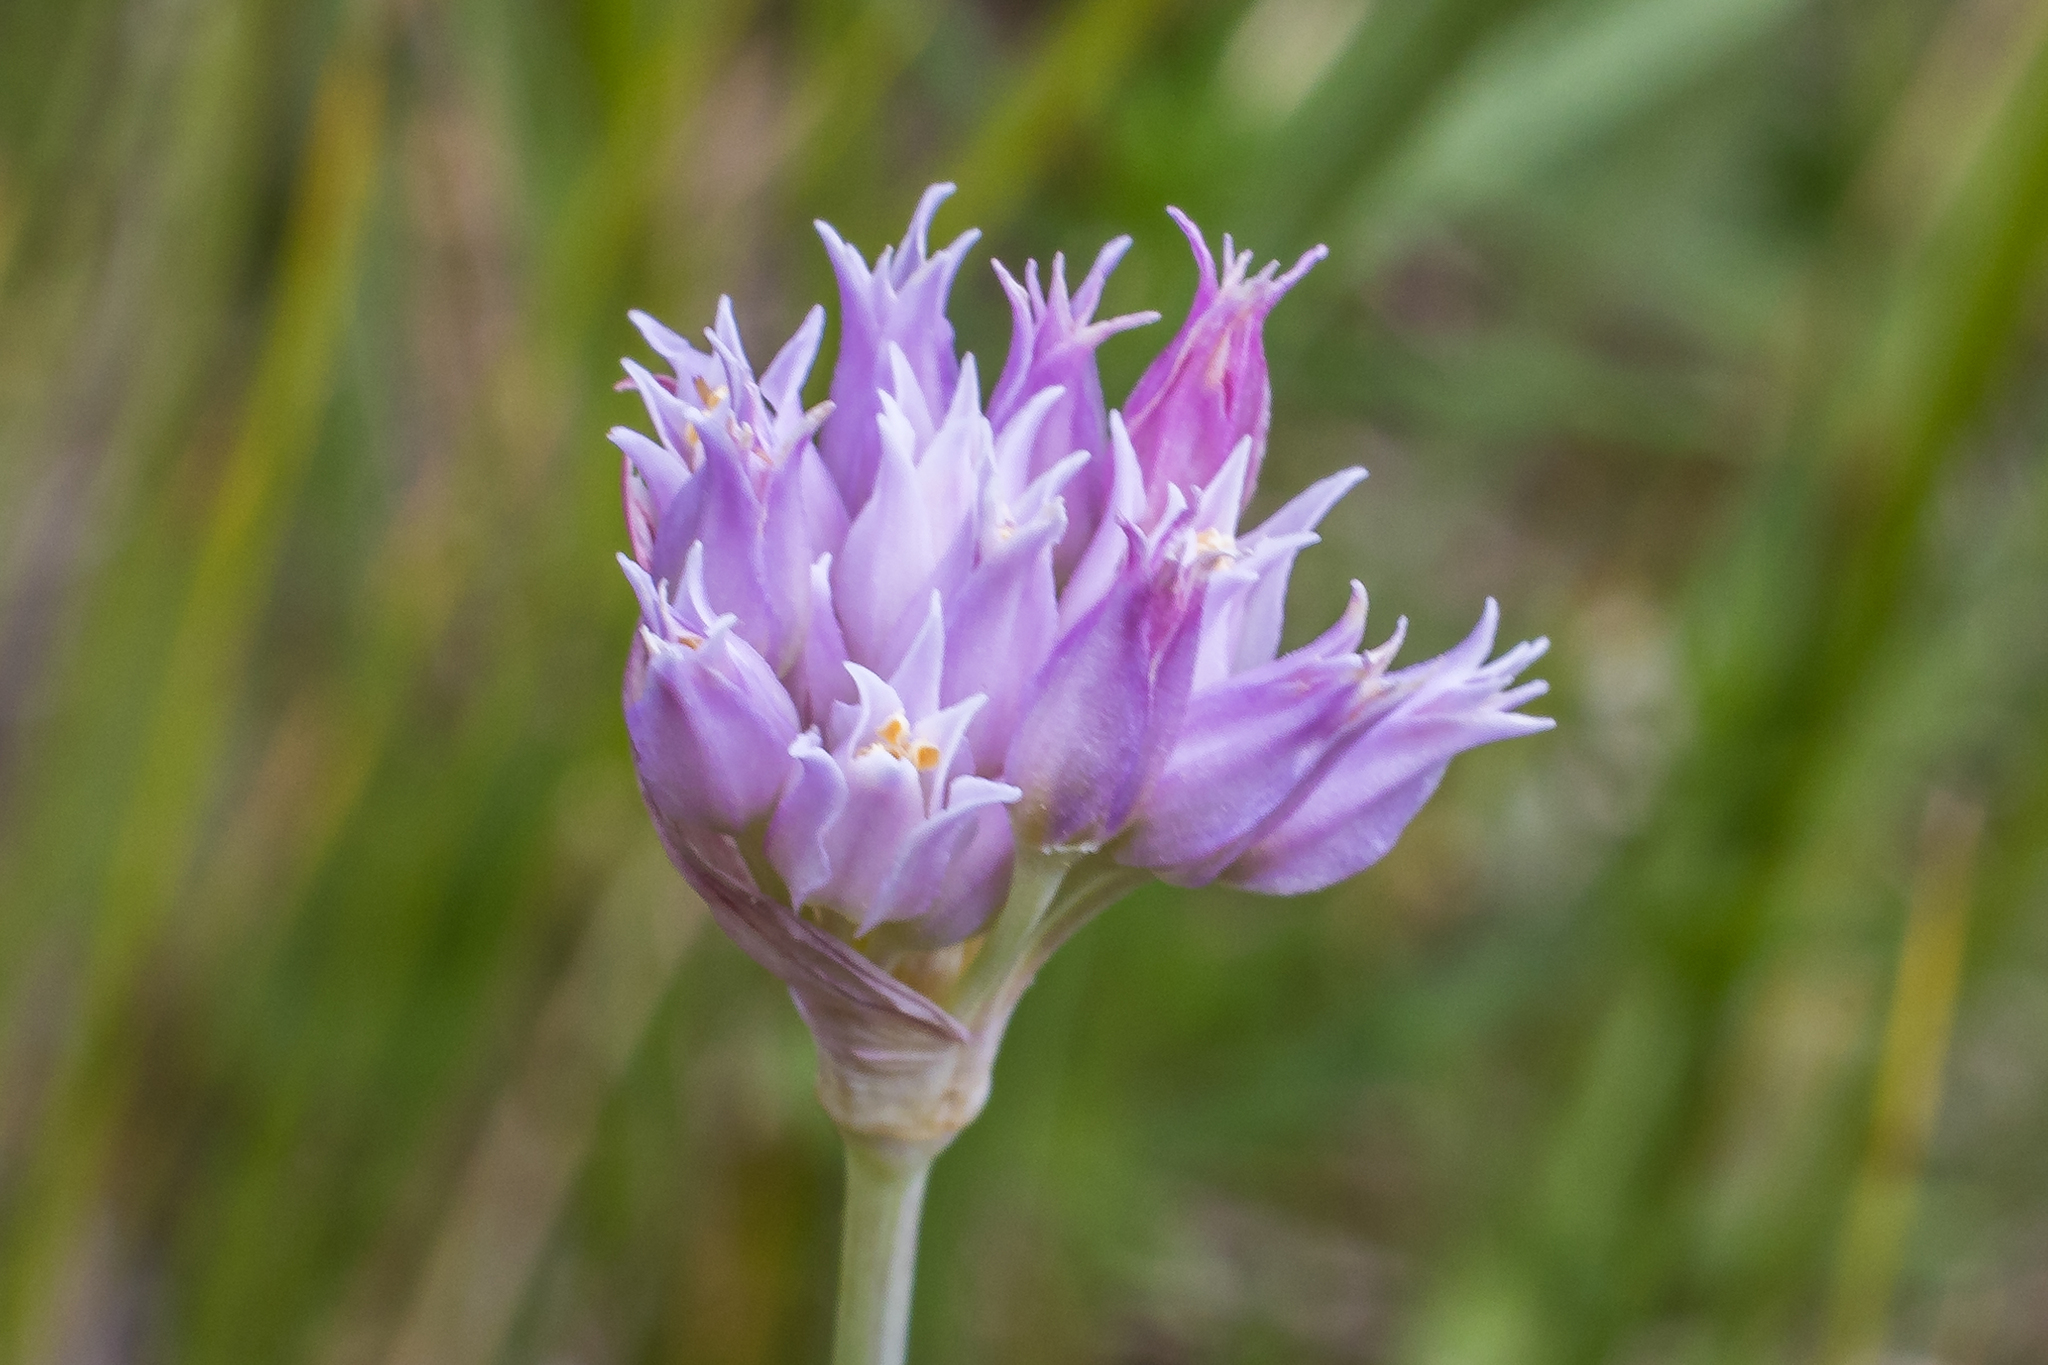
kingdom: Plantae
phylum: Tracheophyta
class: Liliopsida
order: Asparagales
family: Amaryllidaceae
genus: Allium
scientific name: Allium geyeri
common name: Geyer's onion
